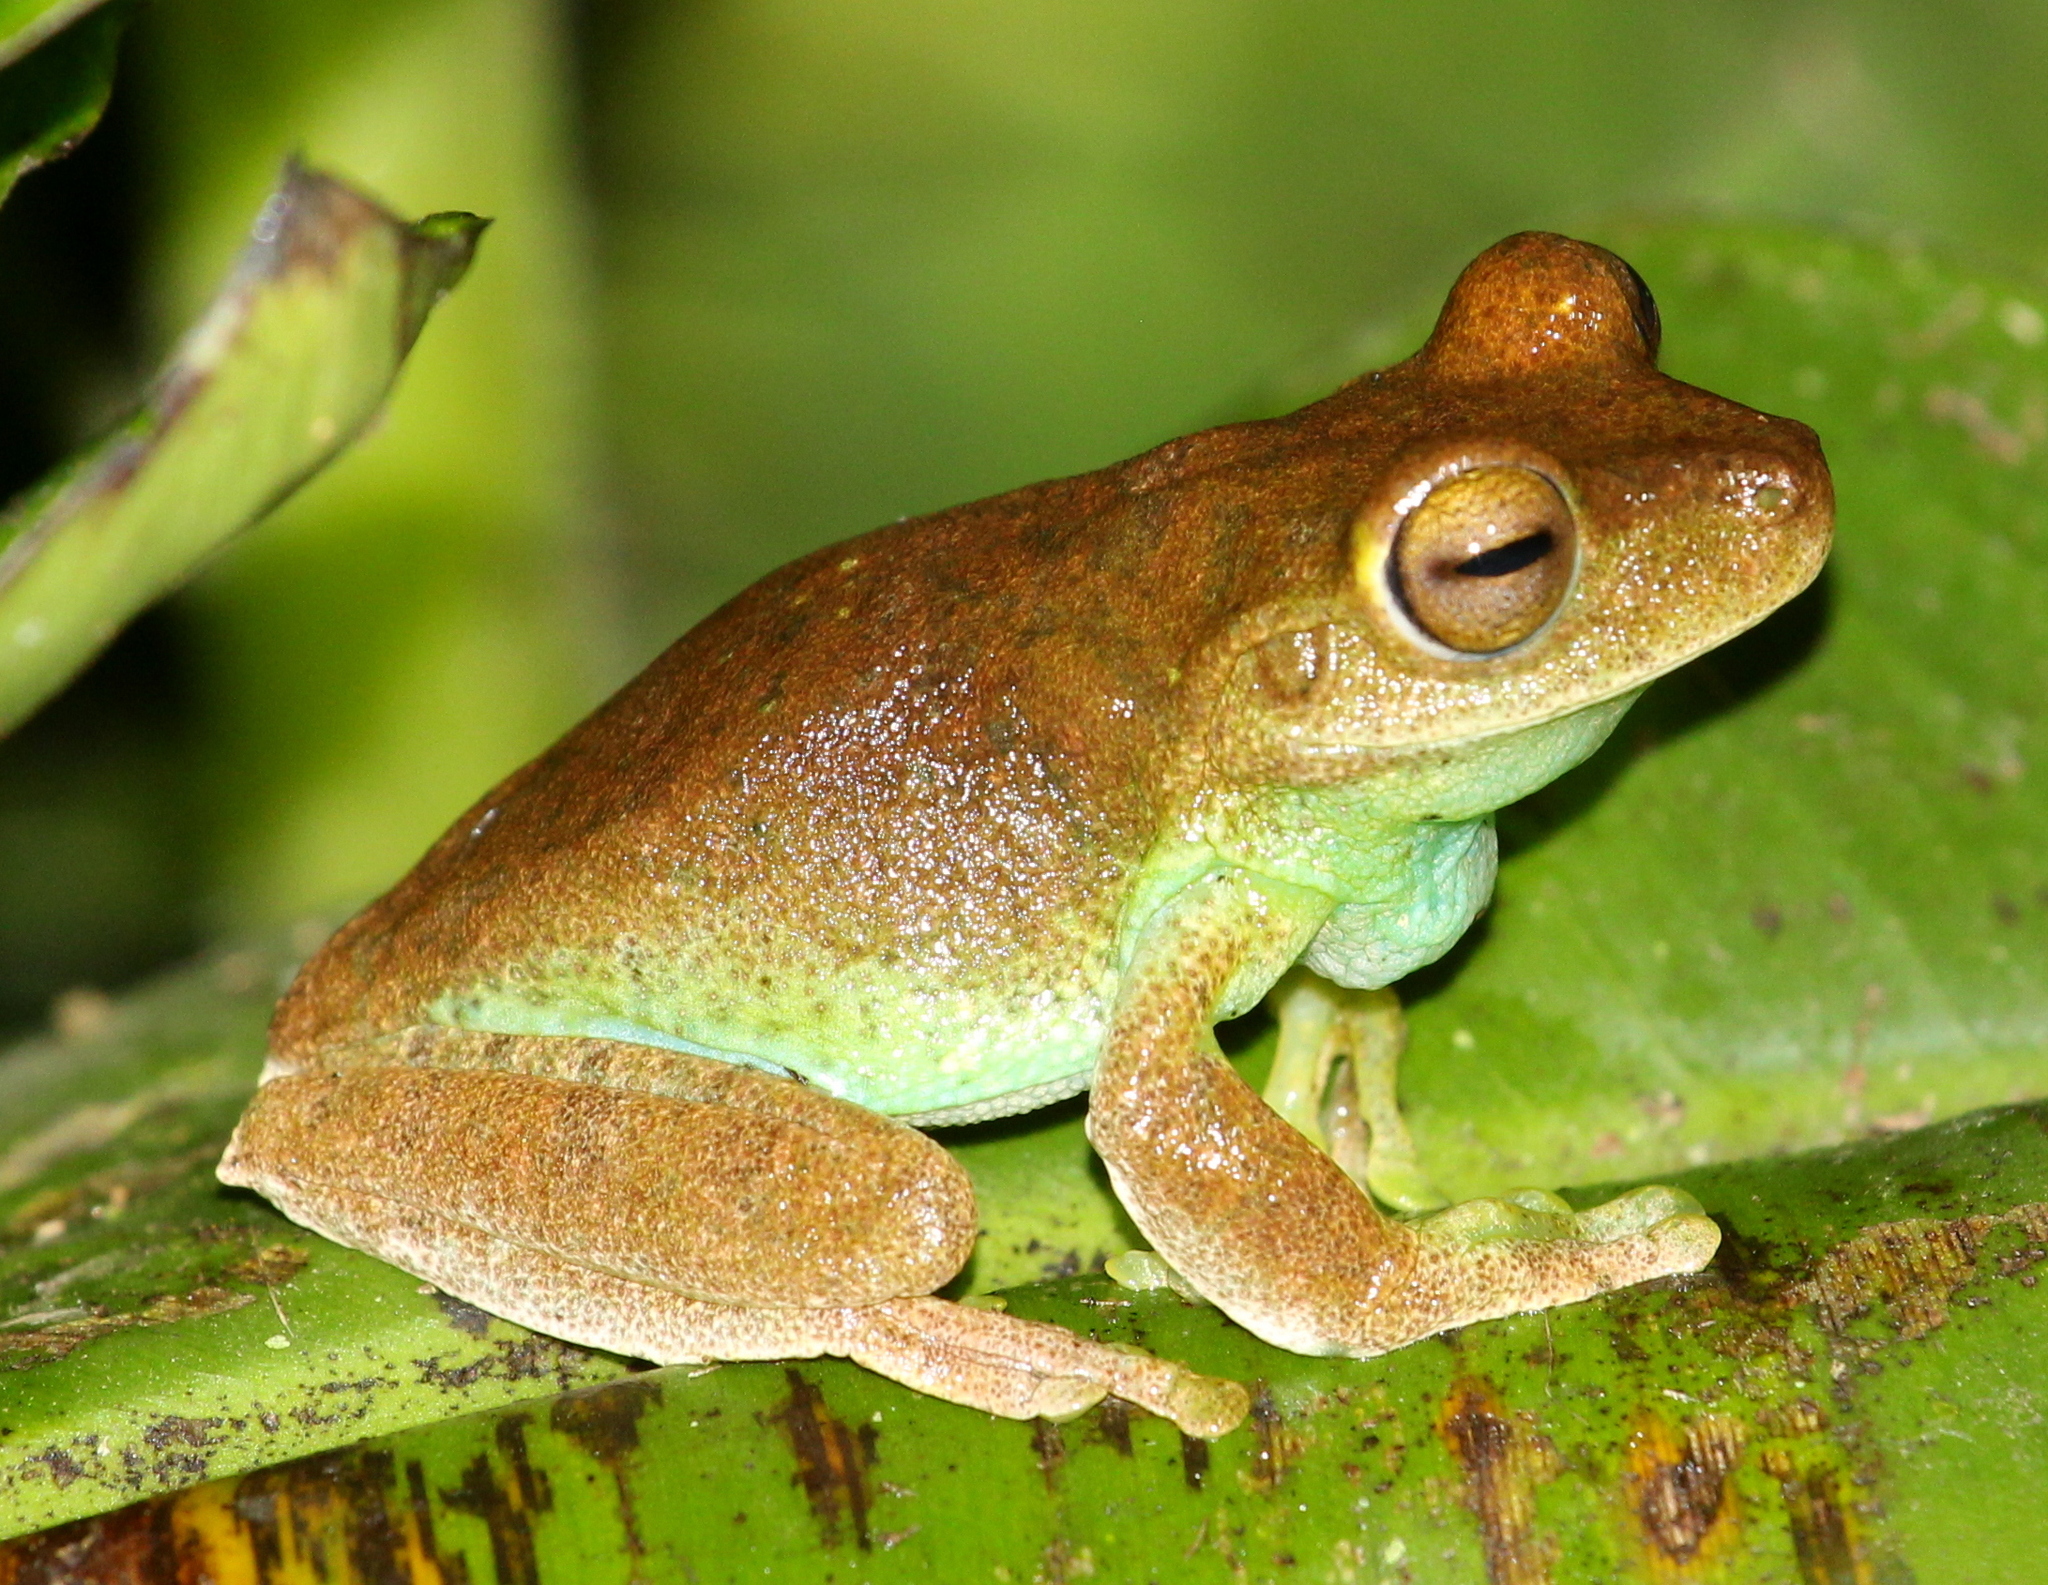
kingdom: Animalia
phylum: Chordata
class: Amphibia
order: Anura
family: Hylidae
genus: Boana
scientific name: Boana pellucens
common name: Palmar treefrog
